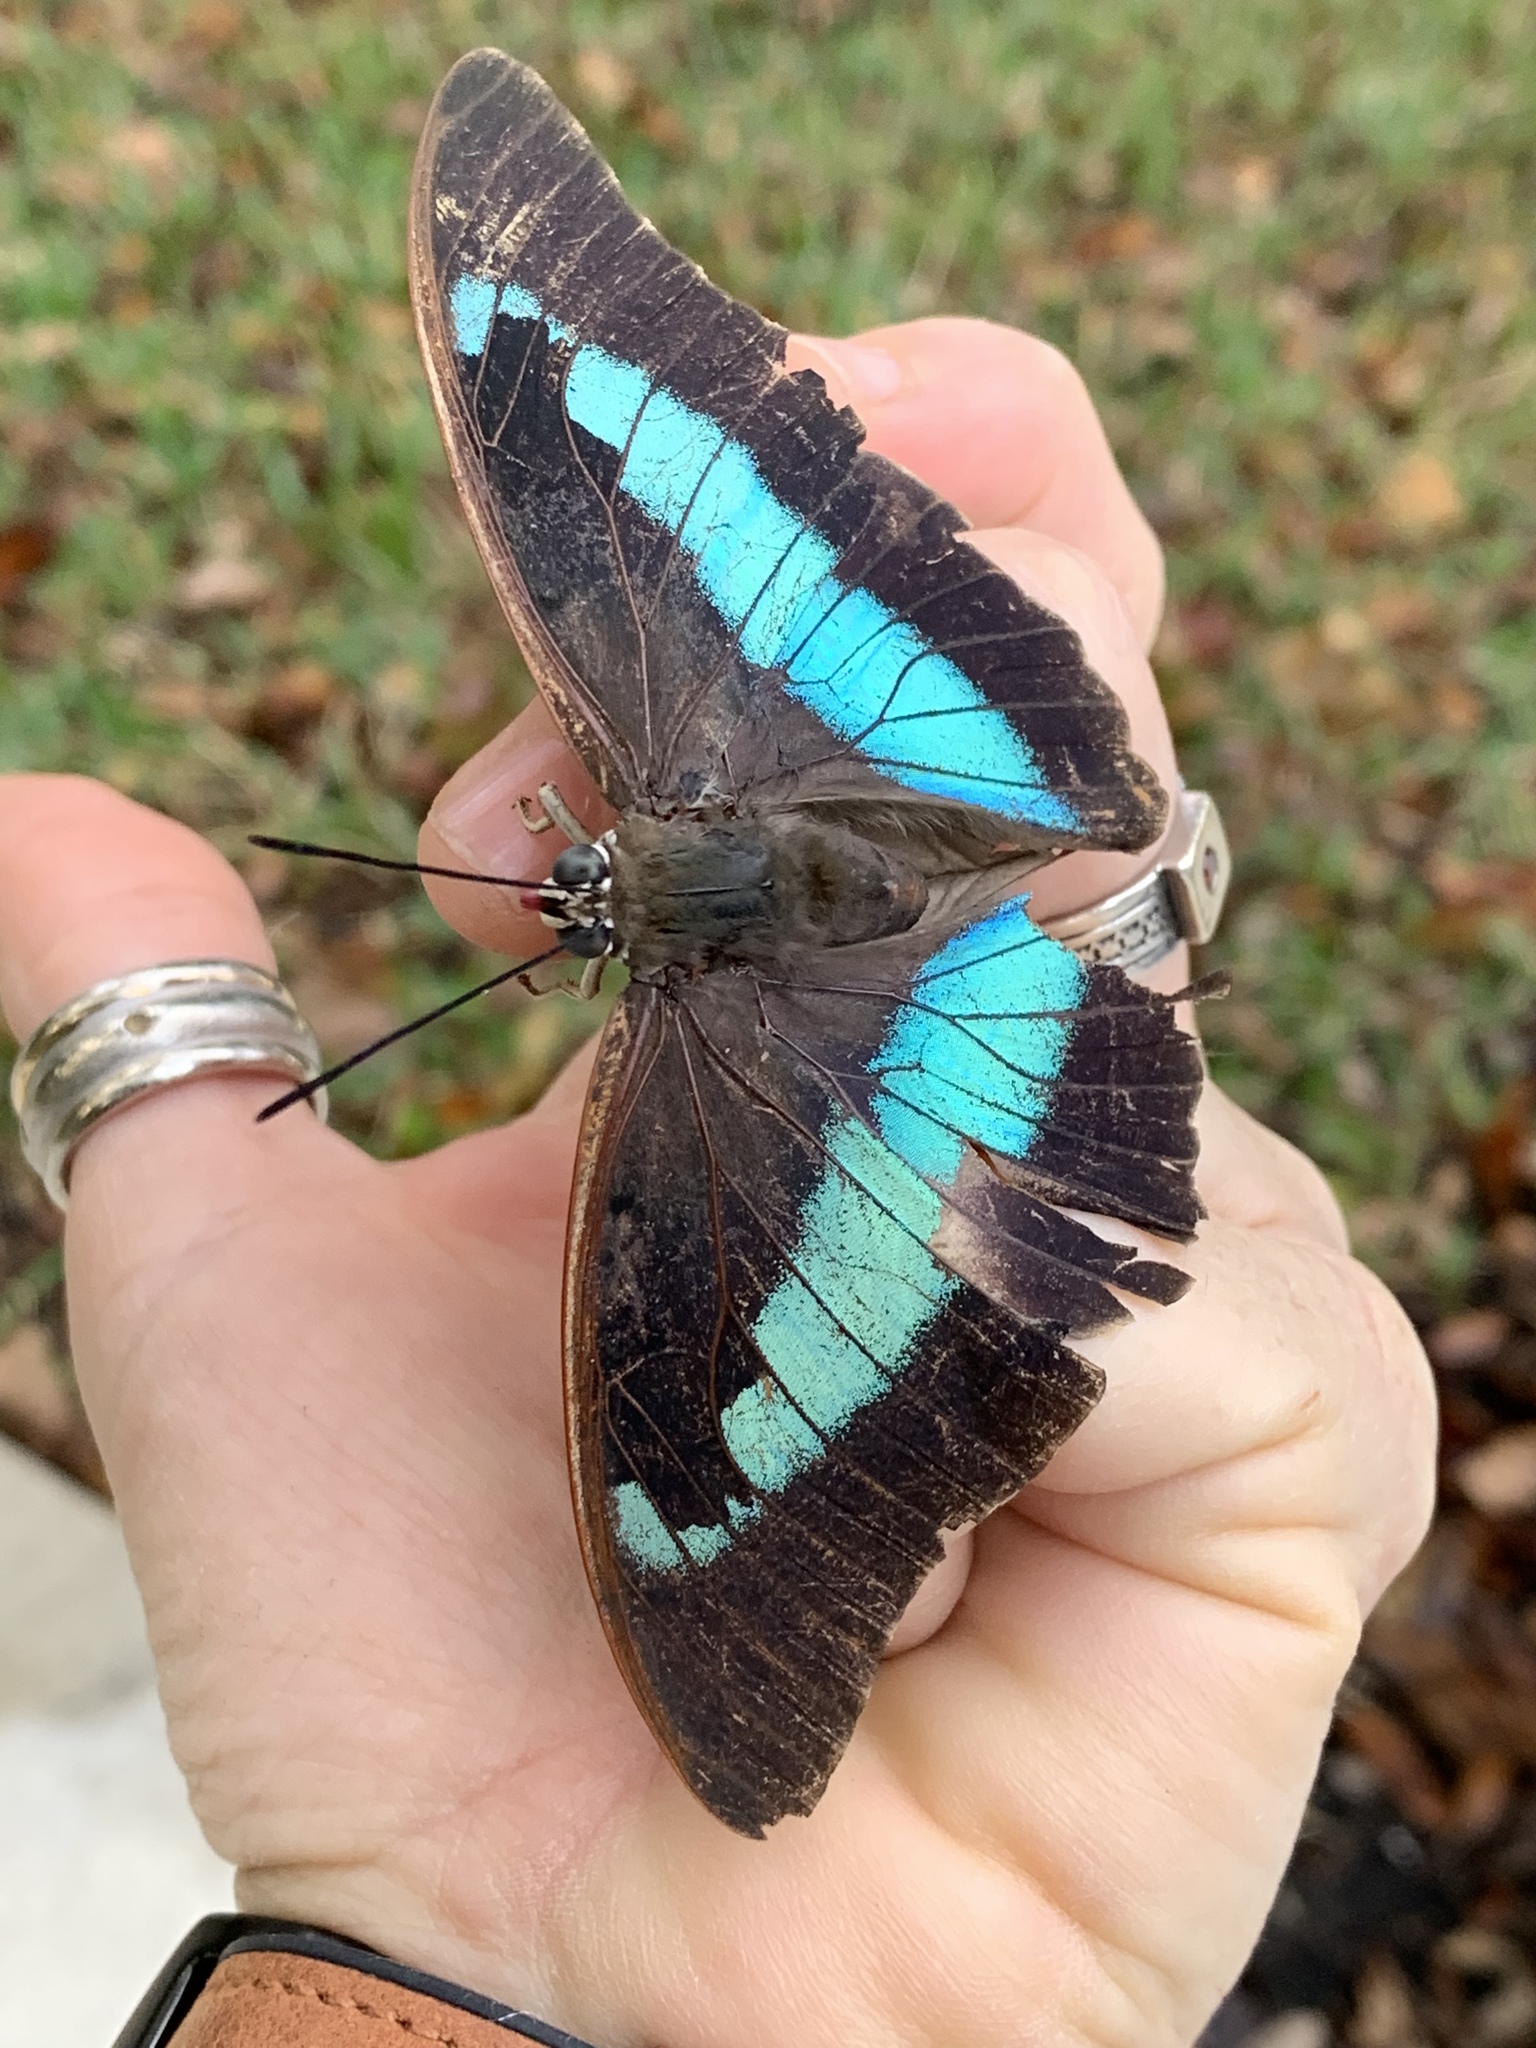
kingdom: Animalia
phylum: Arthropoda
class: Insecta
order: Lepidoptera
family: Nymphalidae
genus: Prepona
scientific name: Prepona laertes
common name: Butterfly
